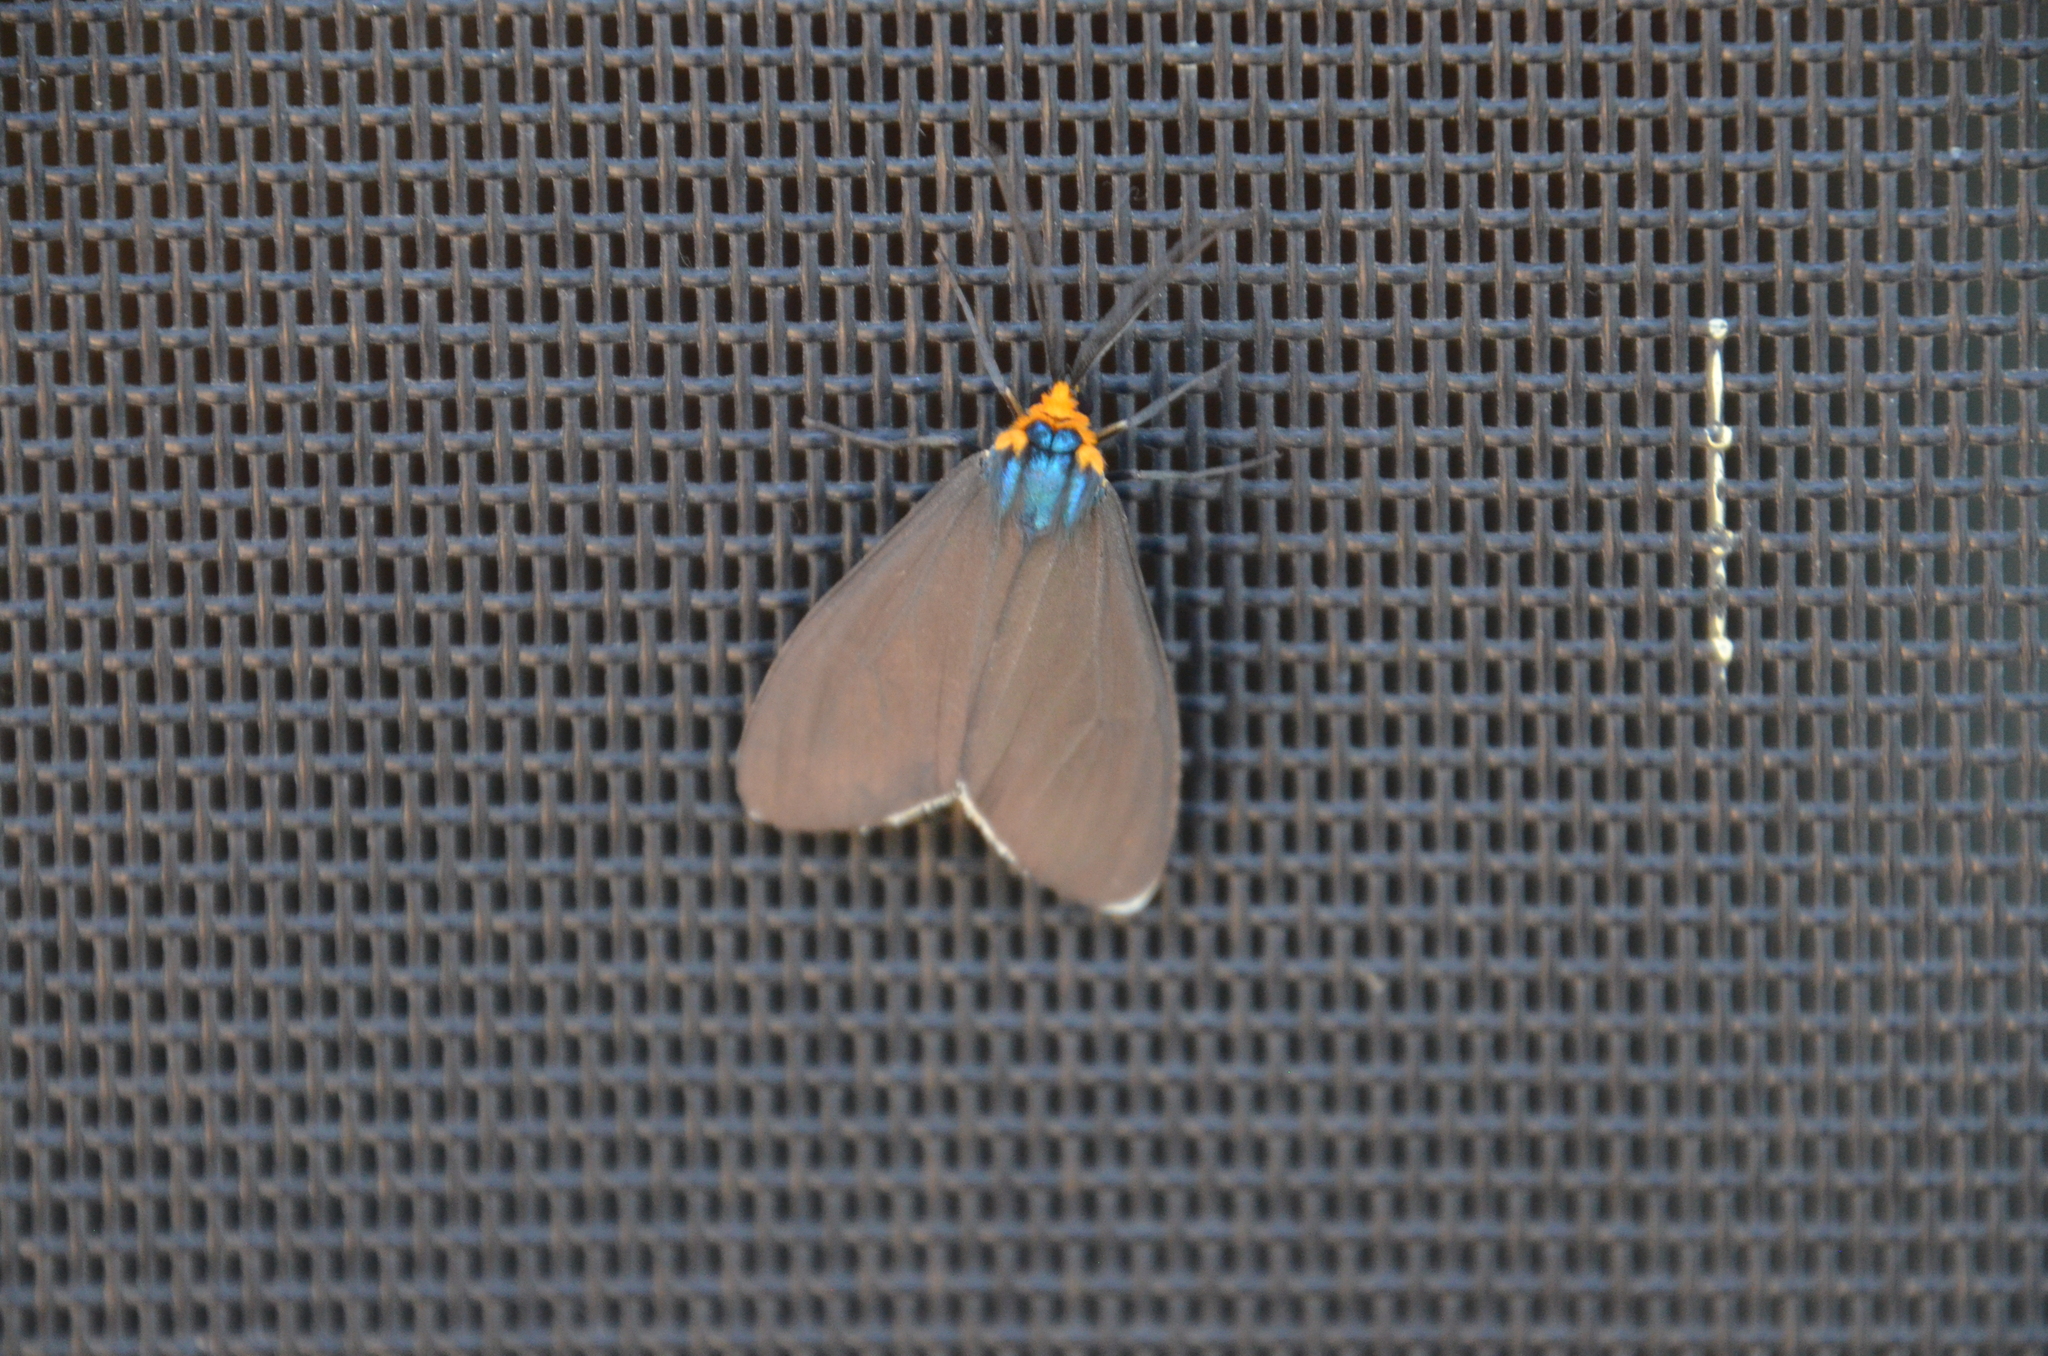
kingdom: Animalia
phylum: Arthropoda
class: Insecta
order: Lepidoptera
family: Erebidae
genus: Ctenucha
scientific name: Ctenucha virginica
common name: Virginia ctenucha moth
